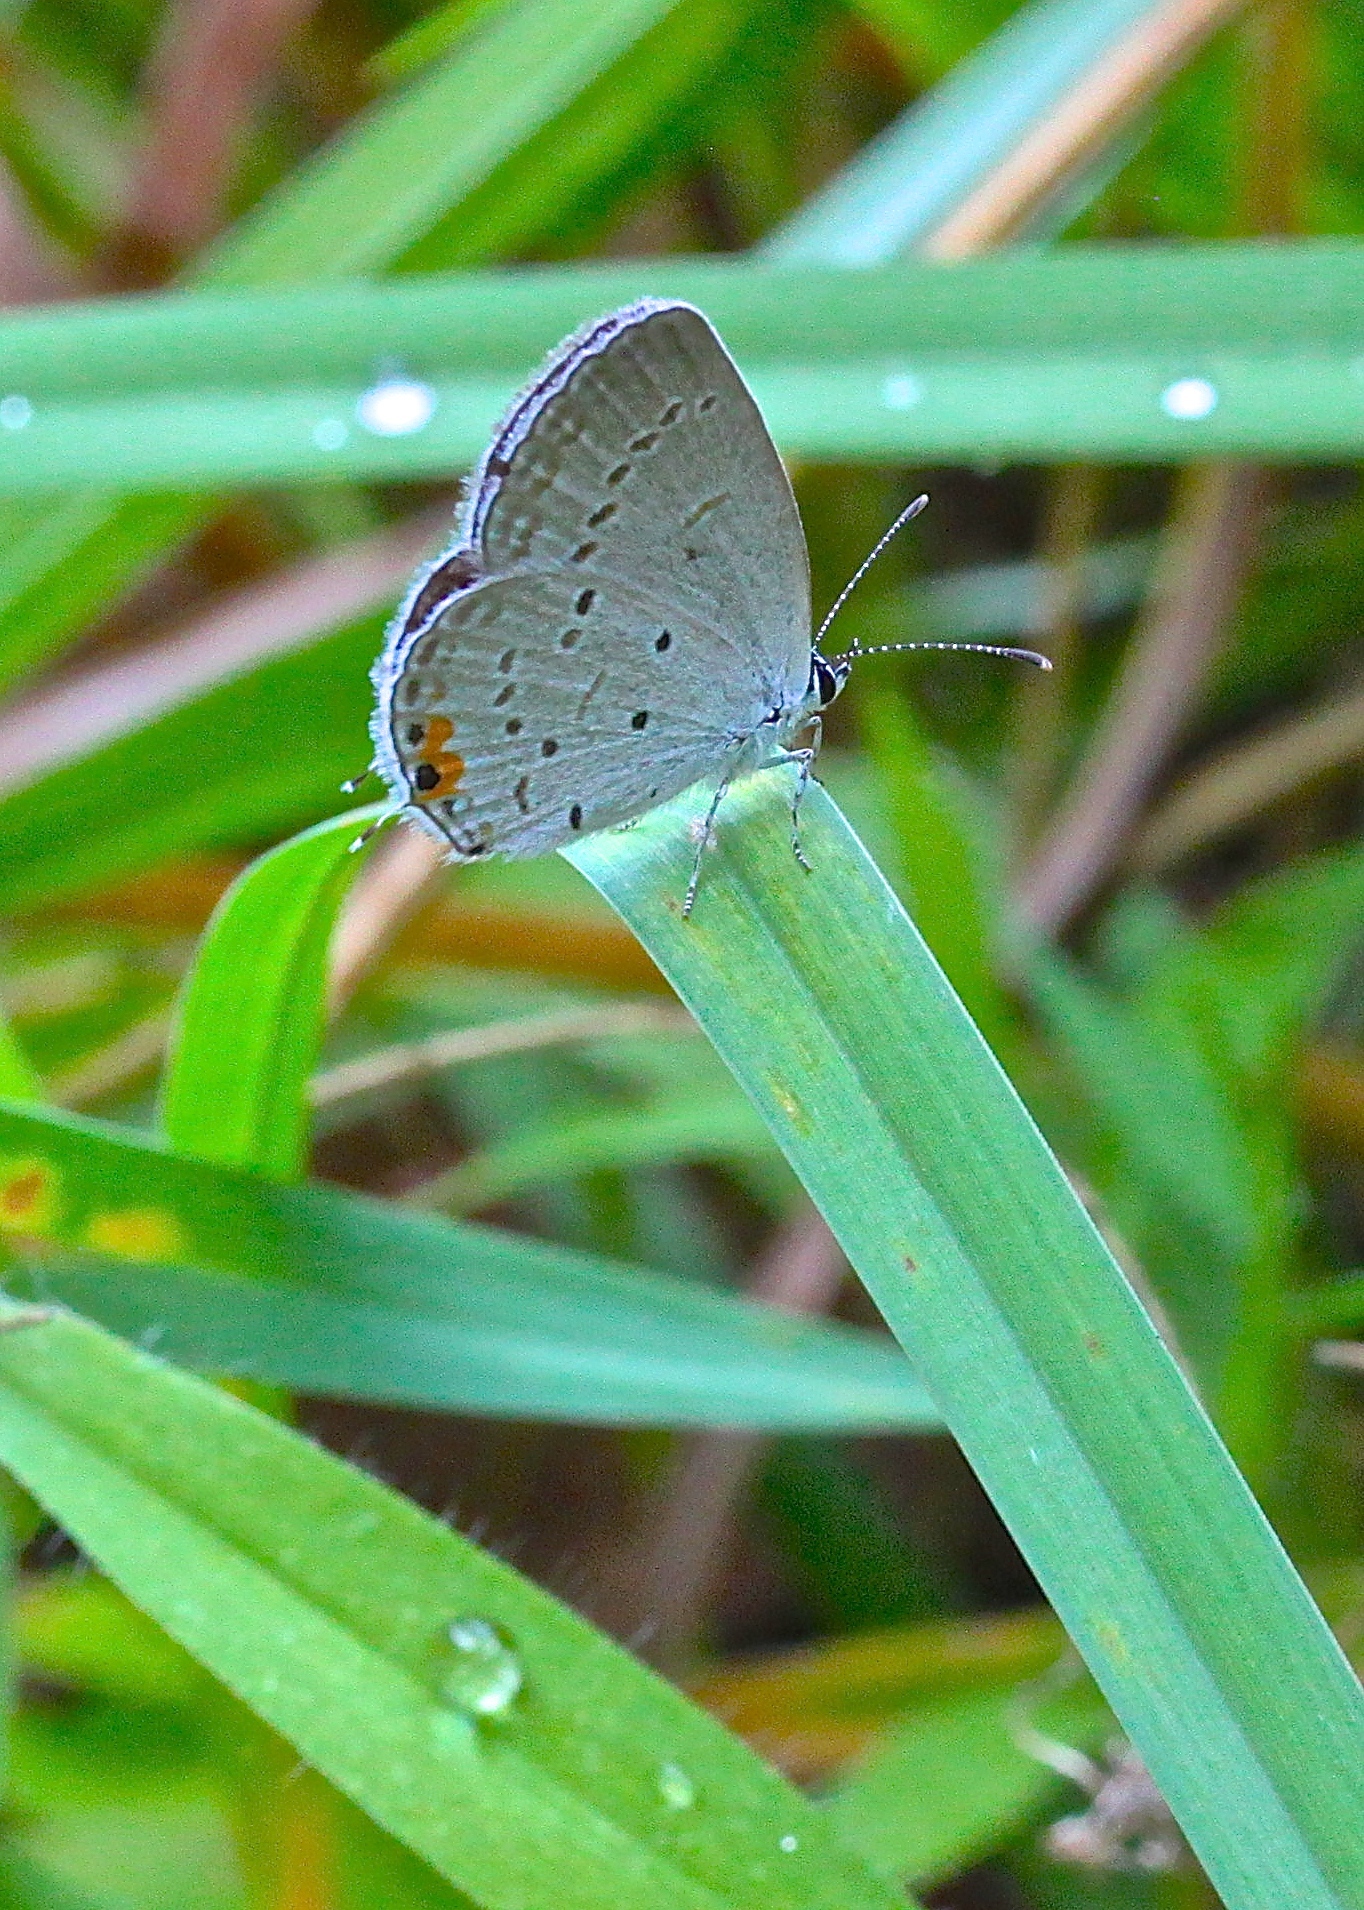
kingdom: Animalia
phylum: Arthropoda
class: Insecta
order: Lepidoptera
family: Lycaenidae
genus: Elkalyce
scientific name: Elkalyce comyntas
